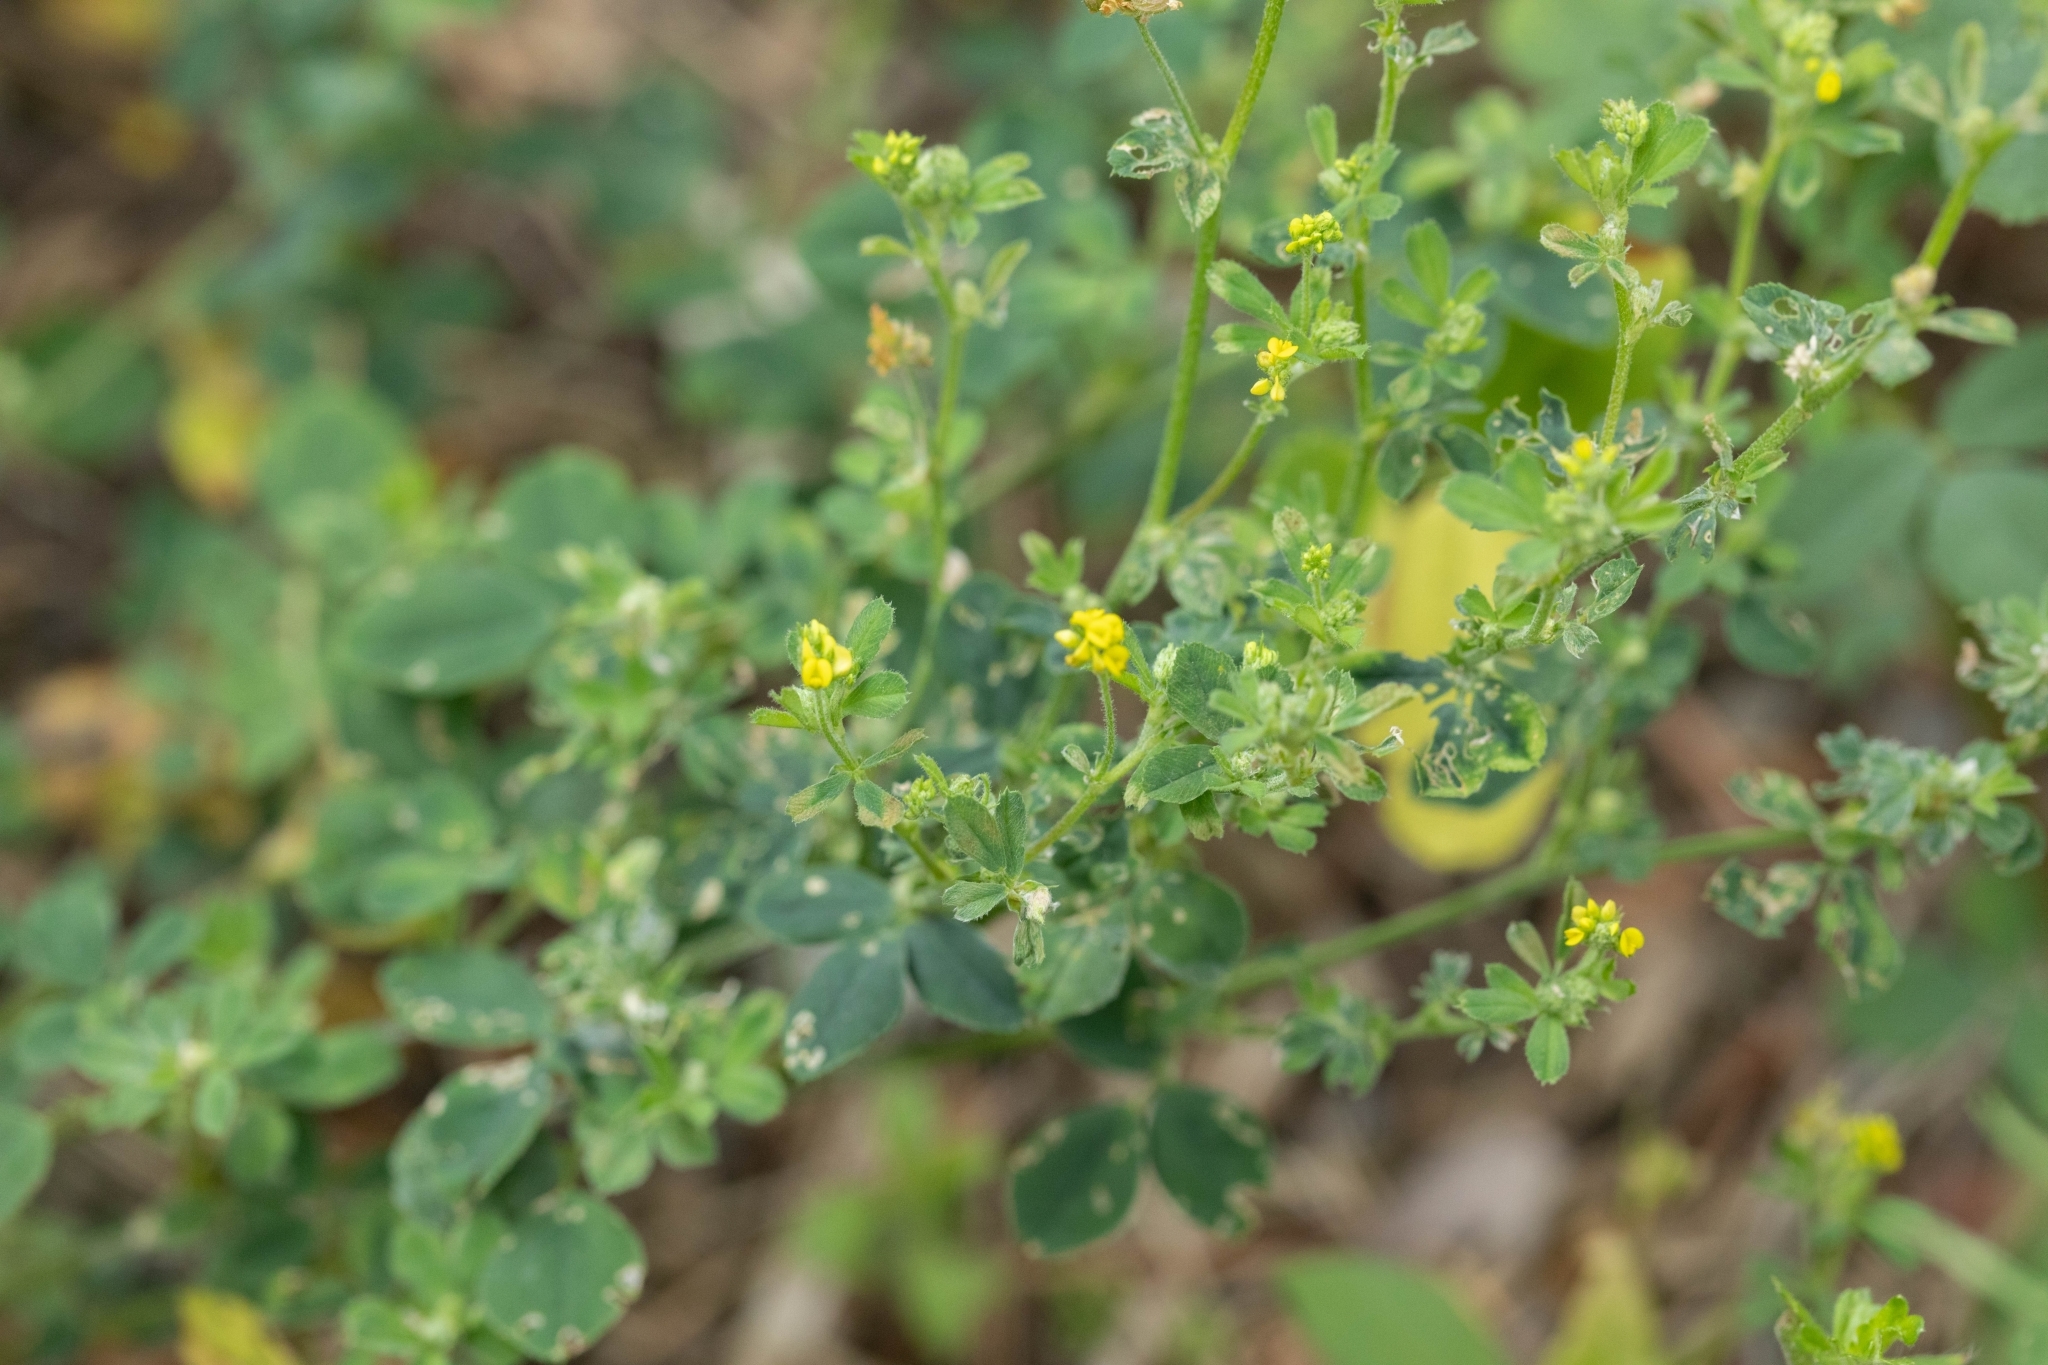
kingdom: Plantae
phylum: Tracheophyta
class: Magnoliopsida
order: Fabales
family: Fabaceae
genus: Medicago
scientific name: Medicago lupulina
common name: Black medick
